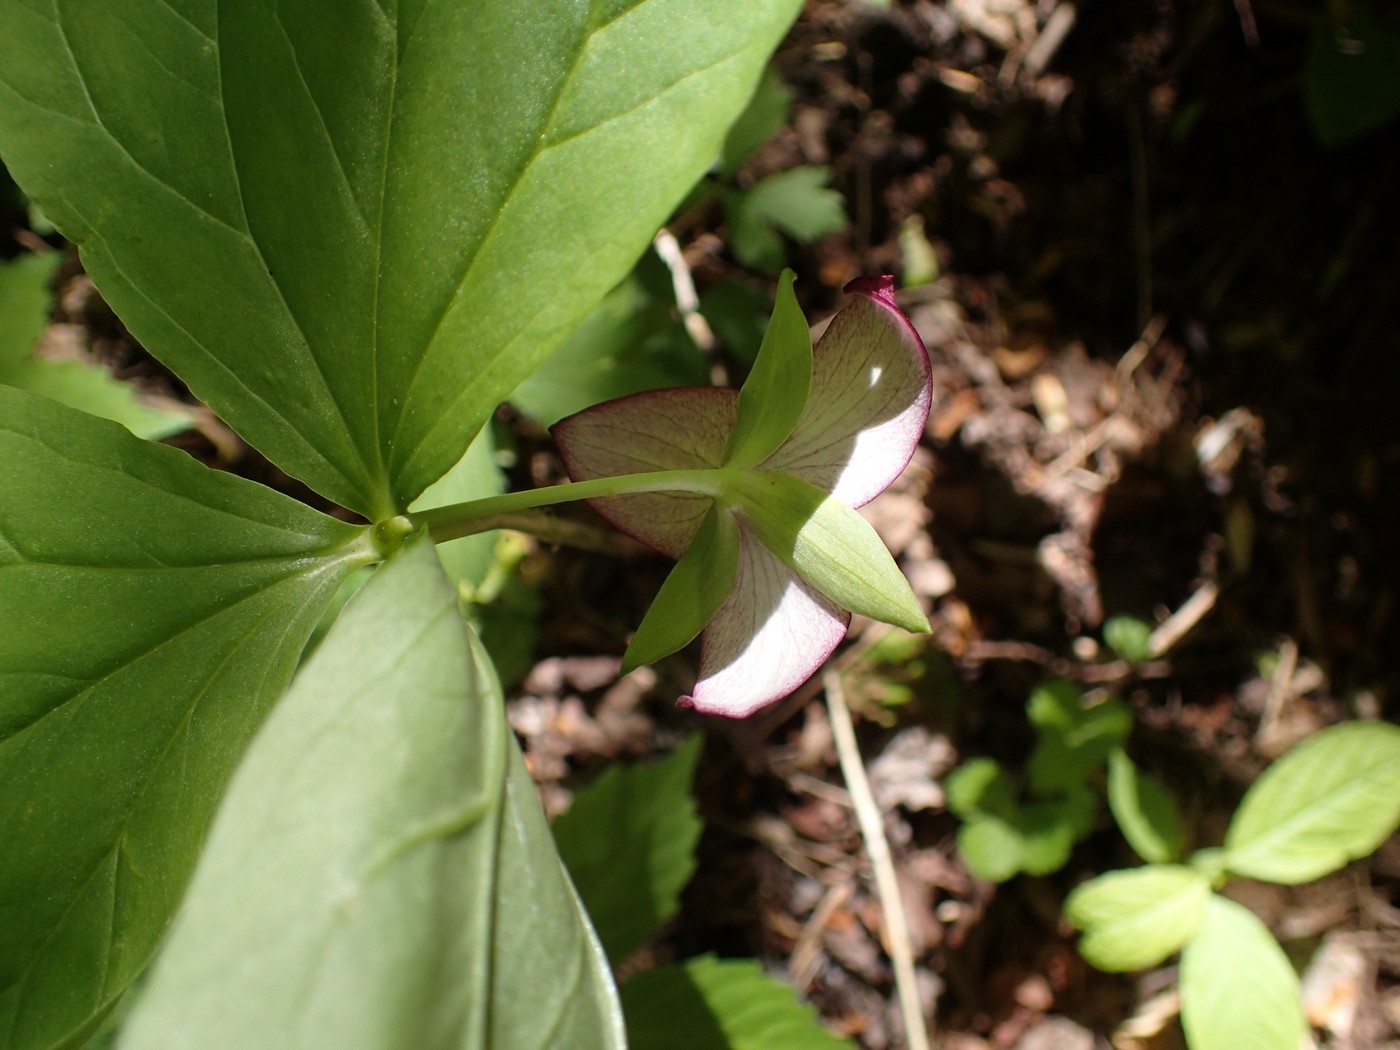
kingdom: Plantae
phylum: Tracheophyta
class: Liliopsida
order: Liliales
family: Melanthiaceae
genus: Trillium
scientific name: Trillium vaseyi
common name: Sweet trillium
